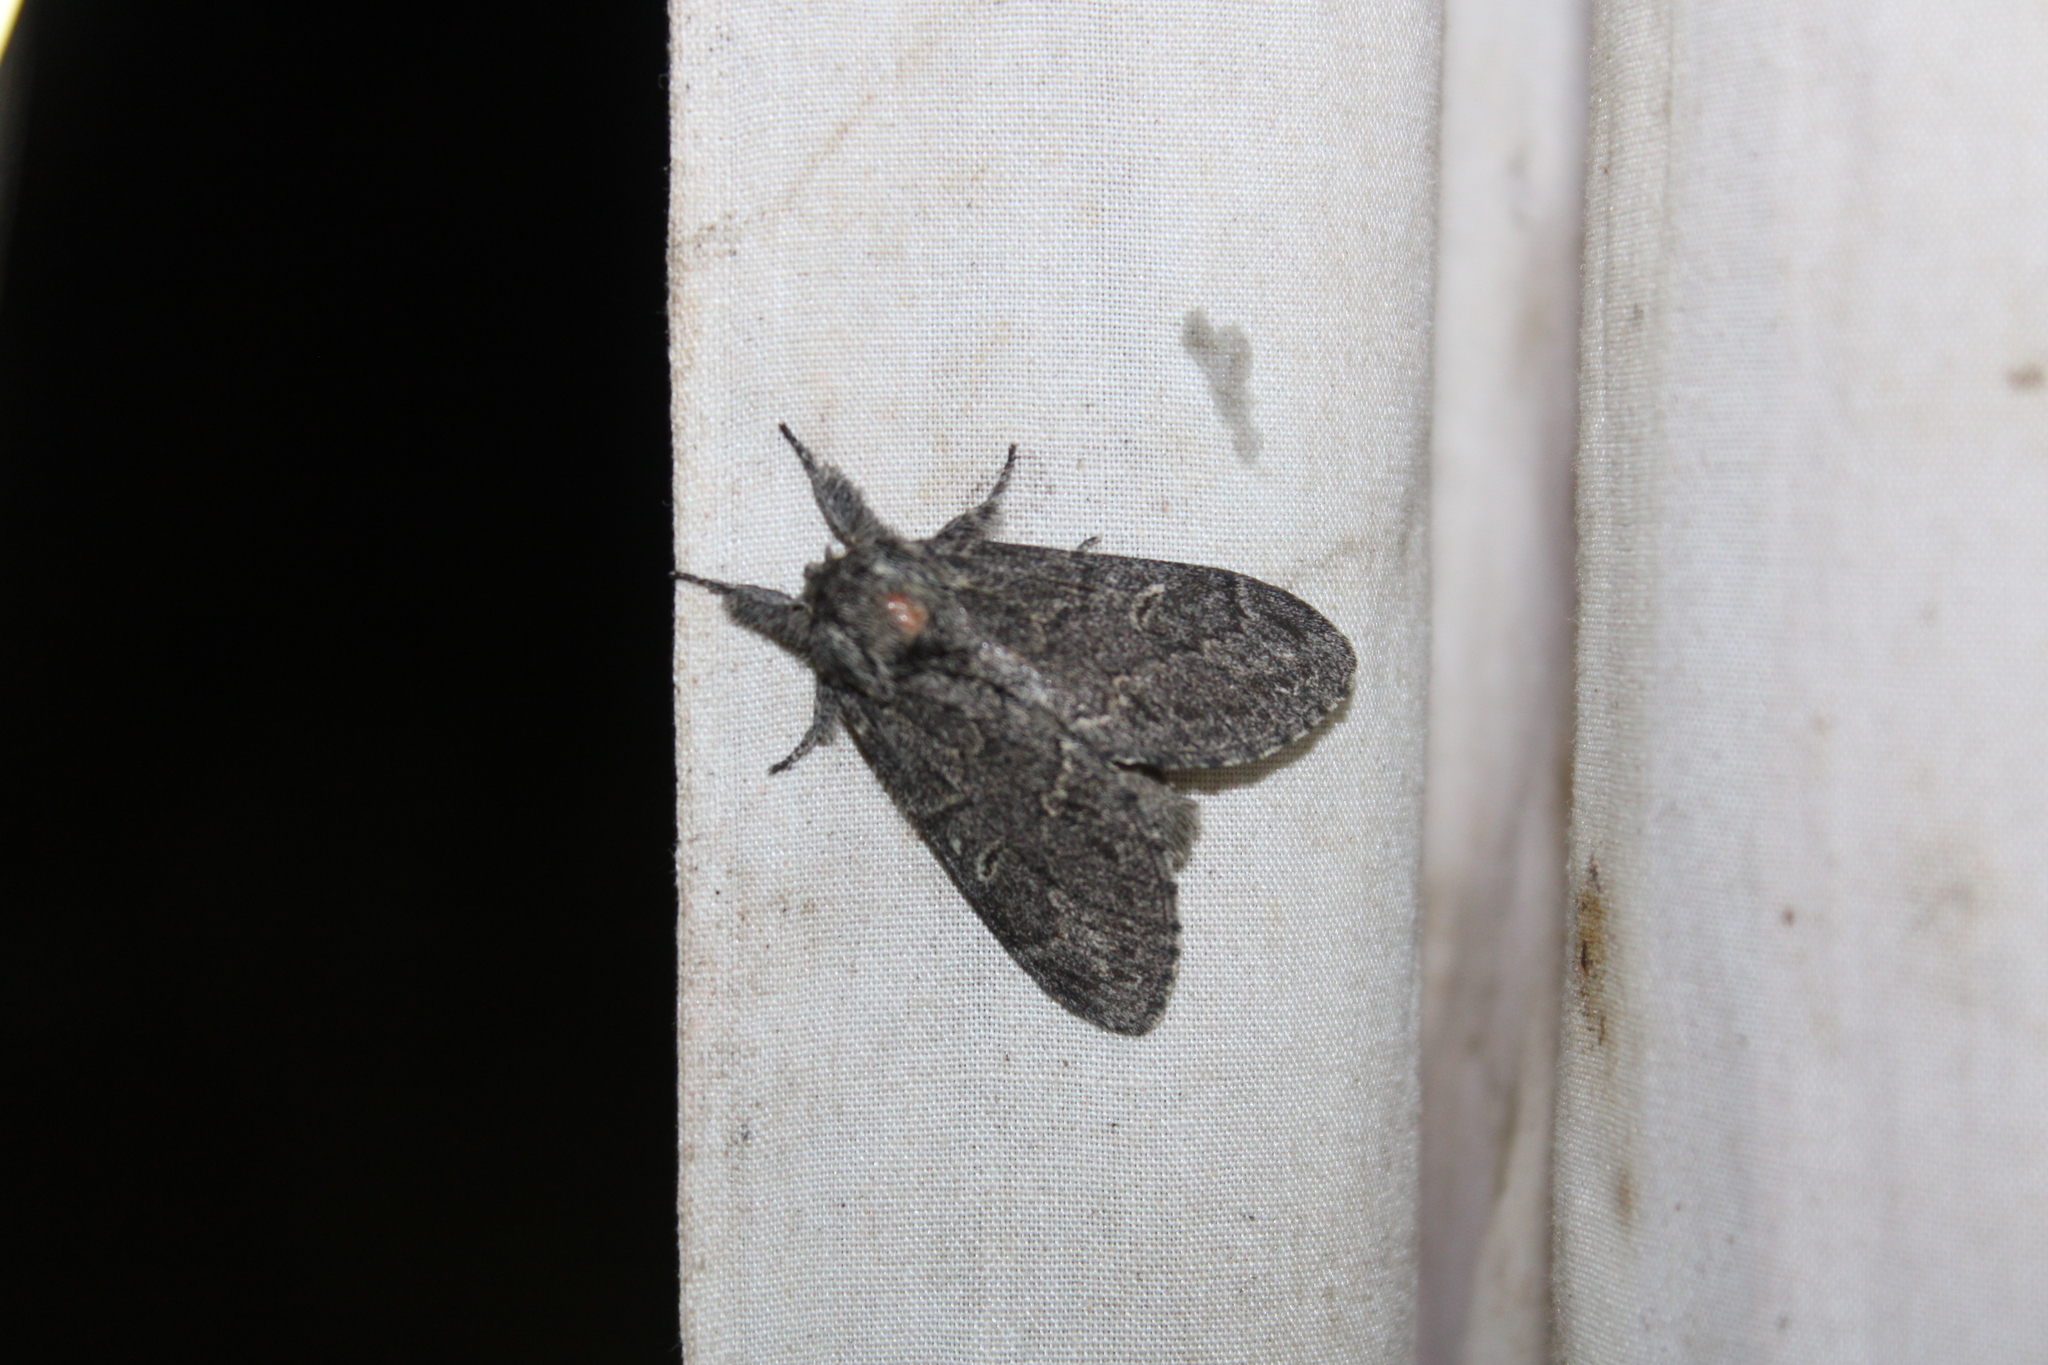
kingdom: Animalia
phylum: Arthropoda
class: Insecta
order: Lepidoptera
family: Notodontidae
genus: Notodonta
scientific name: Notodonta torva
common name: Large dark prominent
